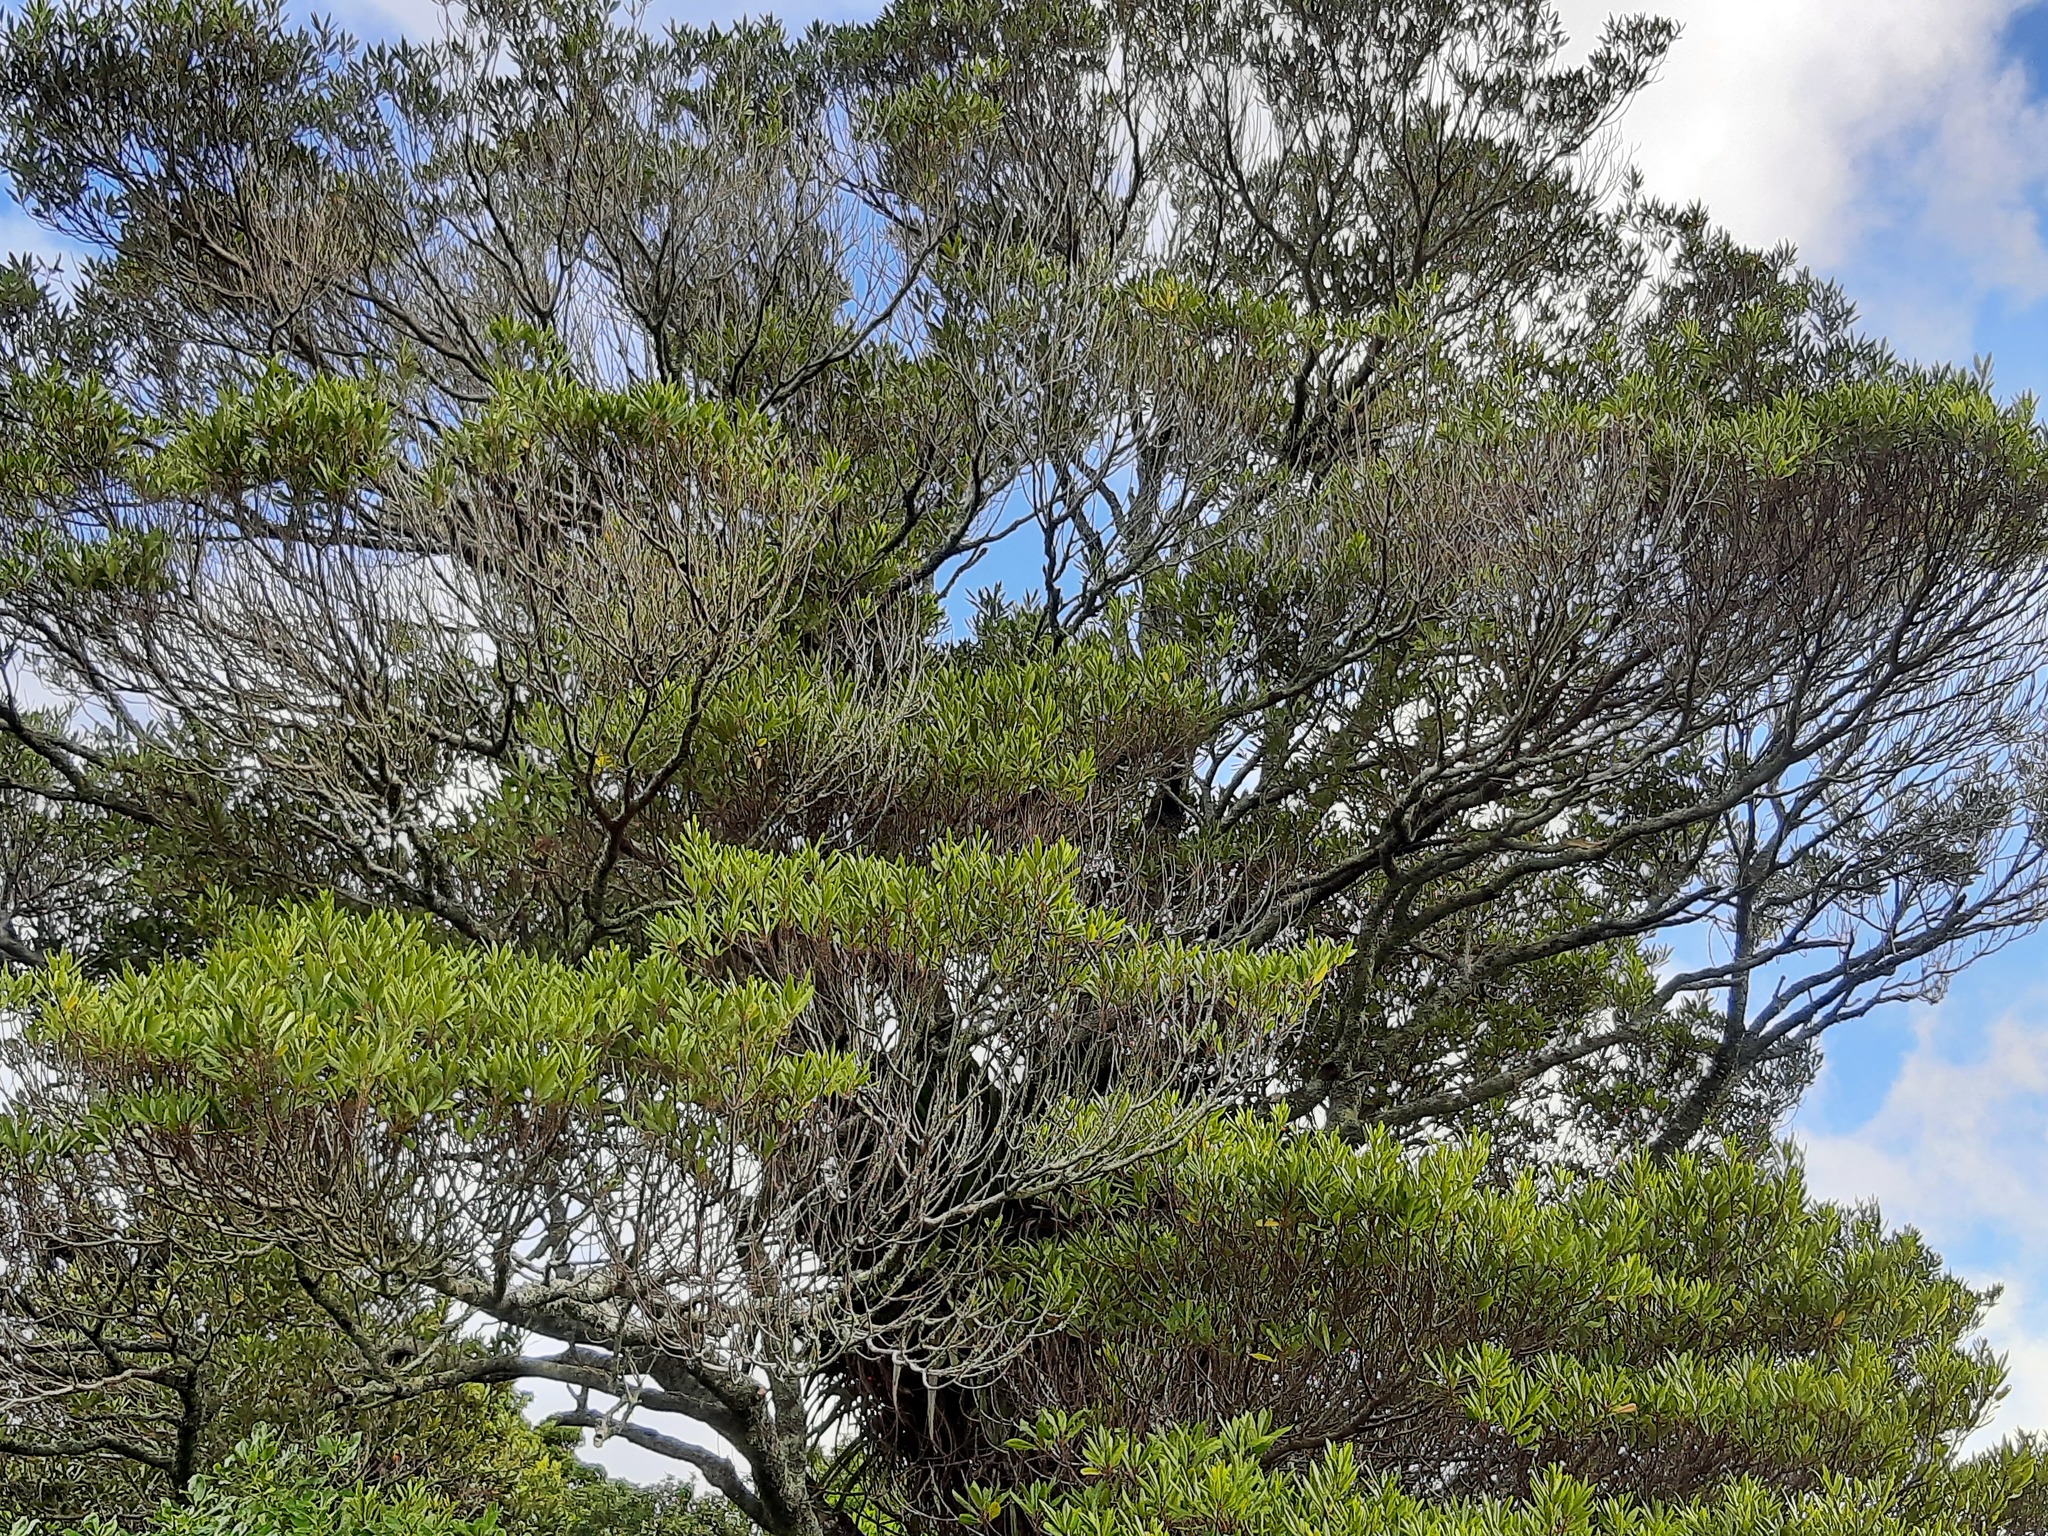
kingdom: Plantae
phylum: Tracheophyta
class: Magnoliopsida
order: Oxalidales
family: Elaeocarpaceae
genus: Elaeocarpus
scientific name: Elaeocarpus dentatus
